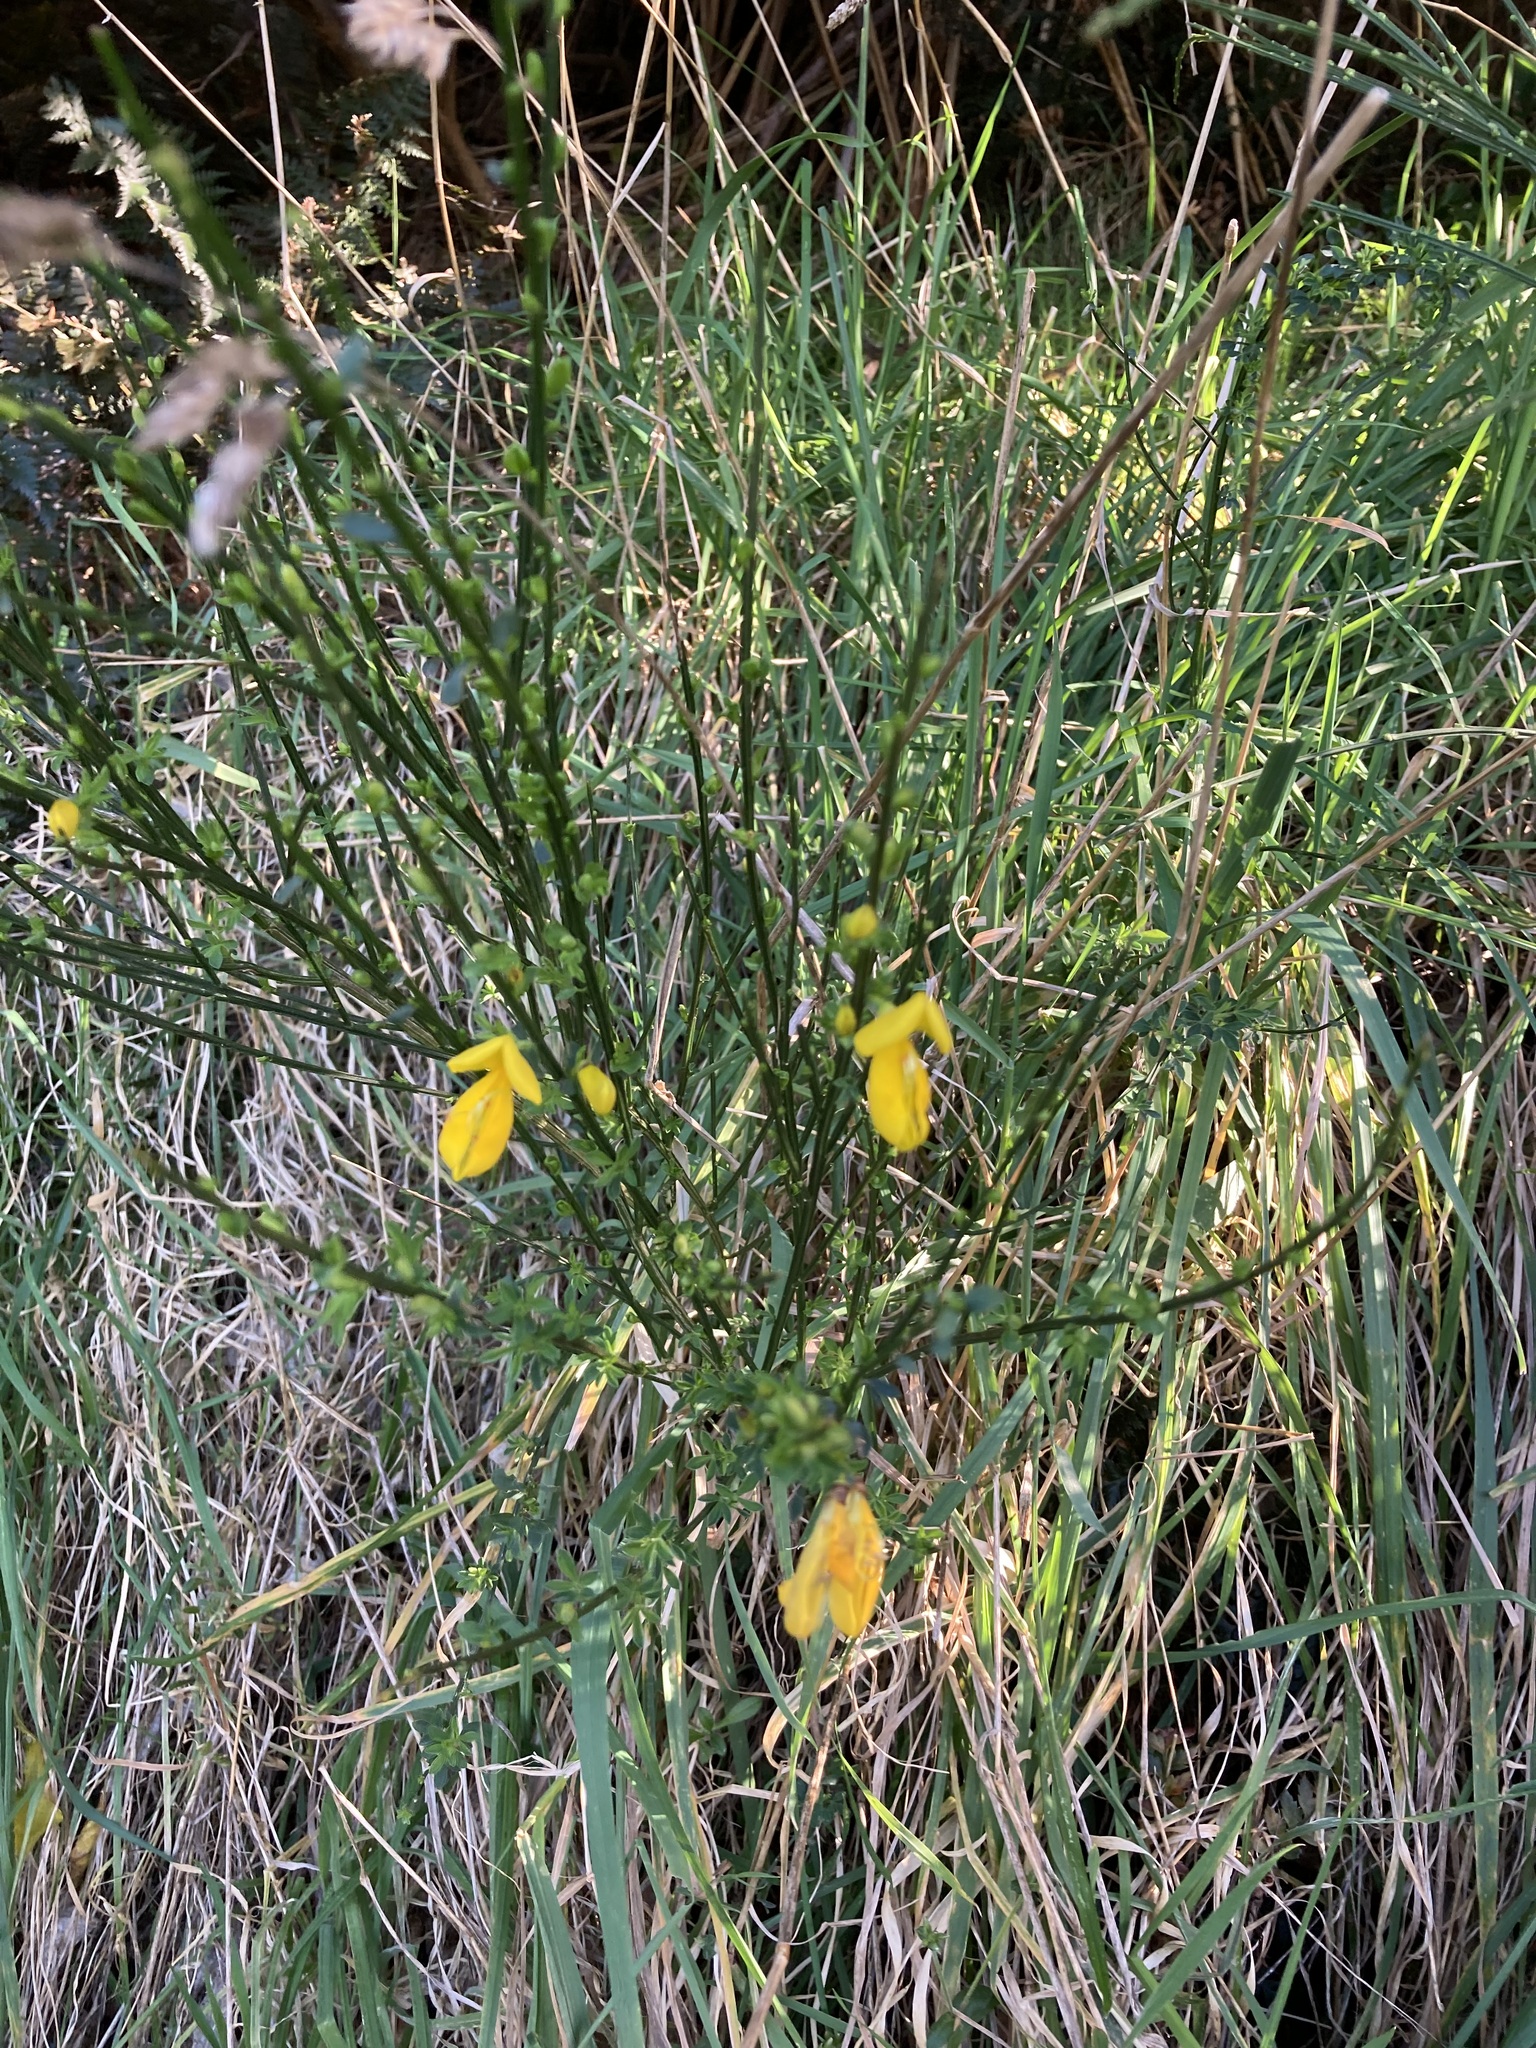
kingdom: Plantae
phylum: Tracheophyta
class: Magnoliopsida
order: Fabales
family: Fabaceae
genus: Cytisus
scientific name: Cytisus scoparius
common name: Scotch broom
